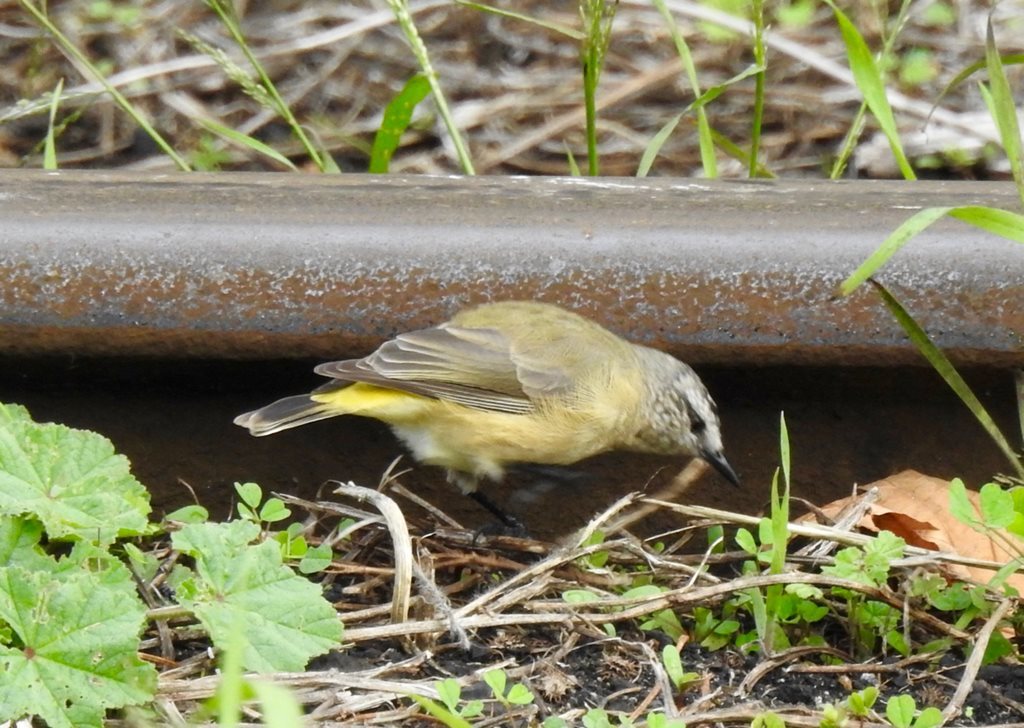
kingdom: Animalia
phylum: Chordata
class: Aves
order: Passeriformes
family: Acanthizidae
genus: Acanthiza
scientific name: Acanthiza chrysorrhoa
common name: Yellow-rumped thornbill
